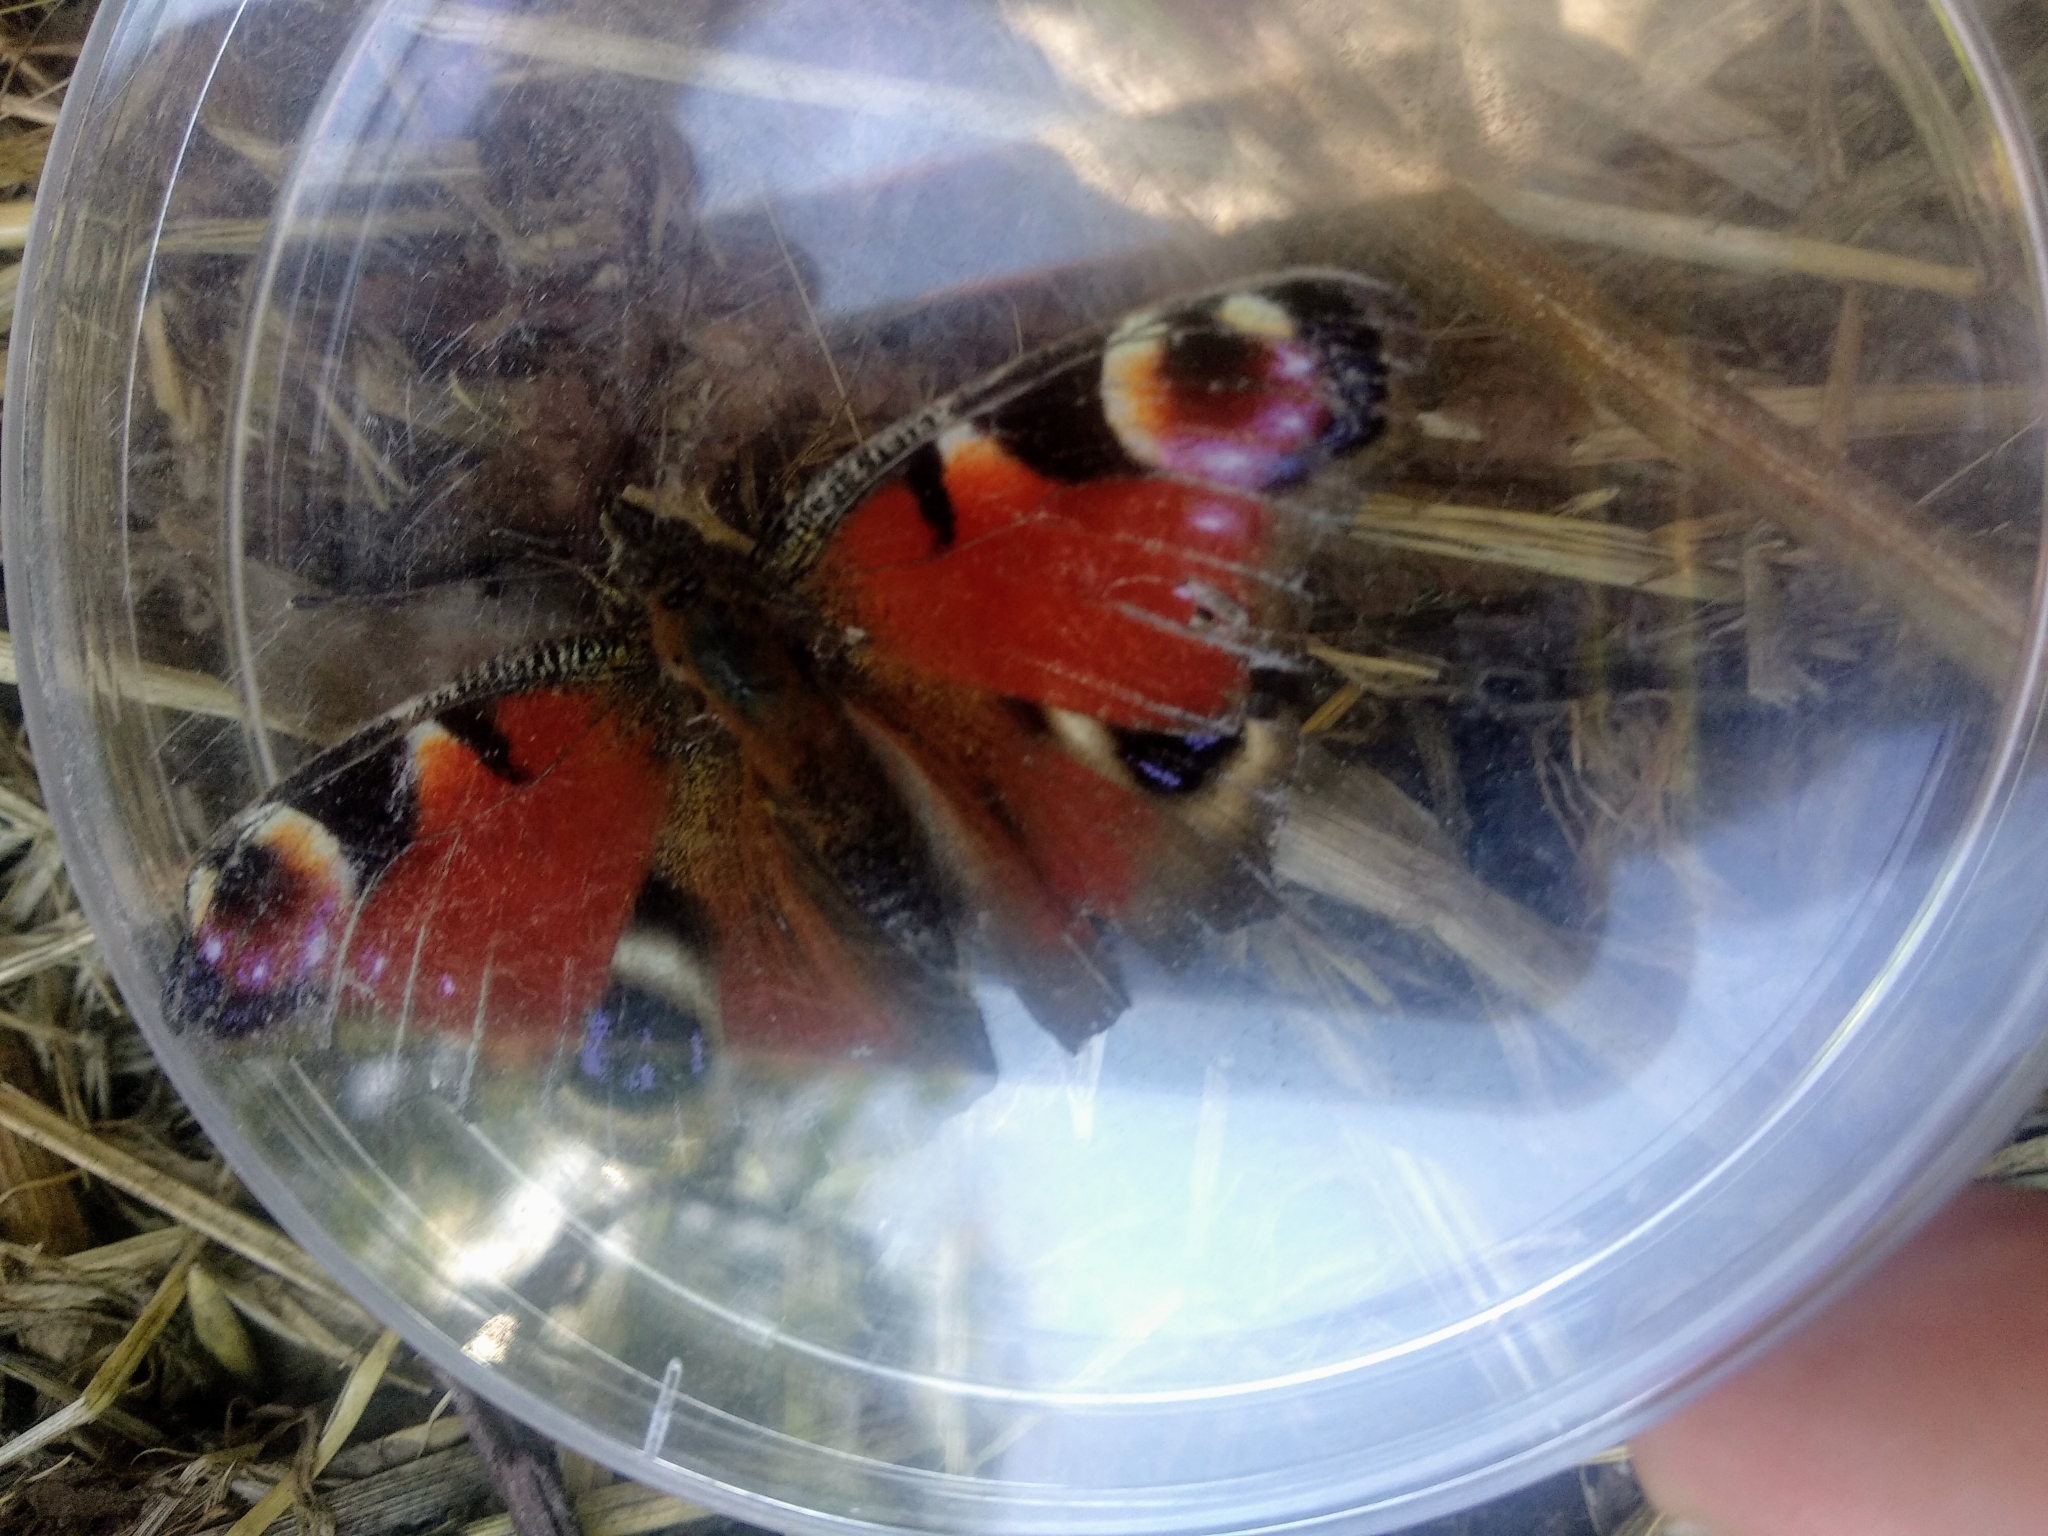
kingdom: Animalia
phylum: Arthropoda
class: Insecta
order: Lepidoptera
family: Nymphalidae
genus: Aglais
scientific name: Aglais io
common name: Peacock
